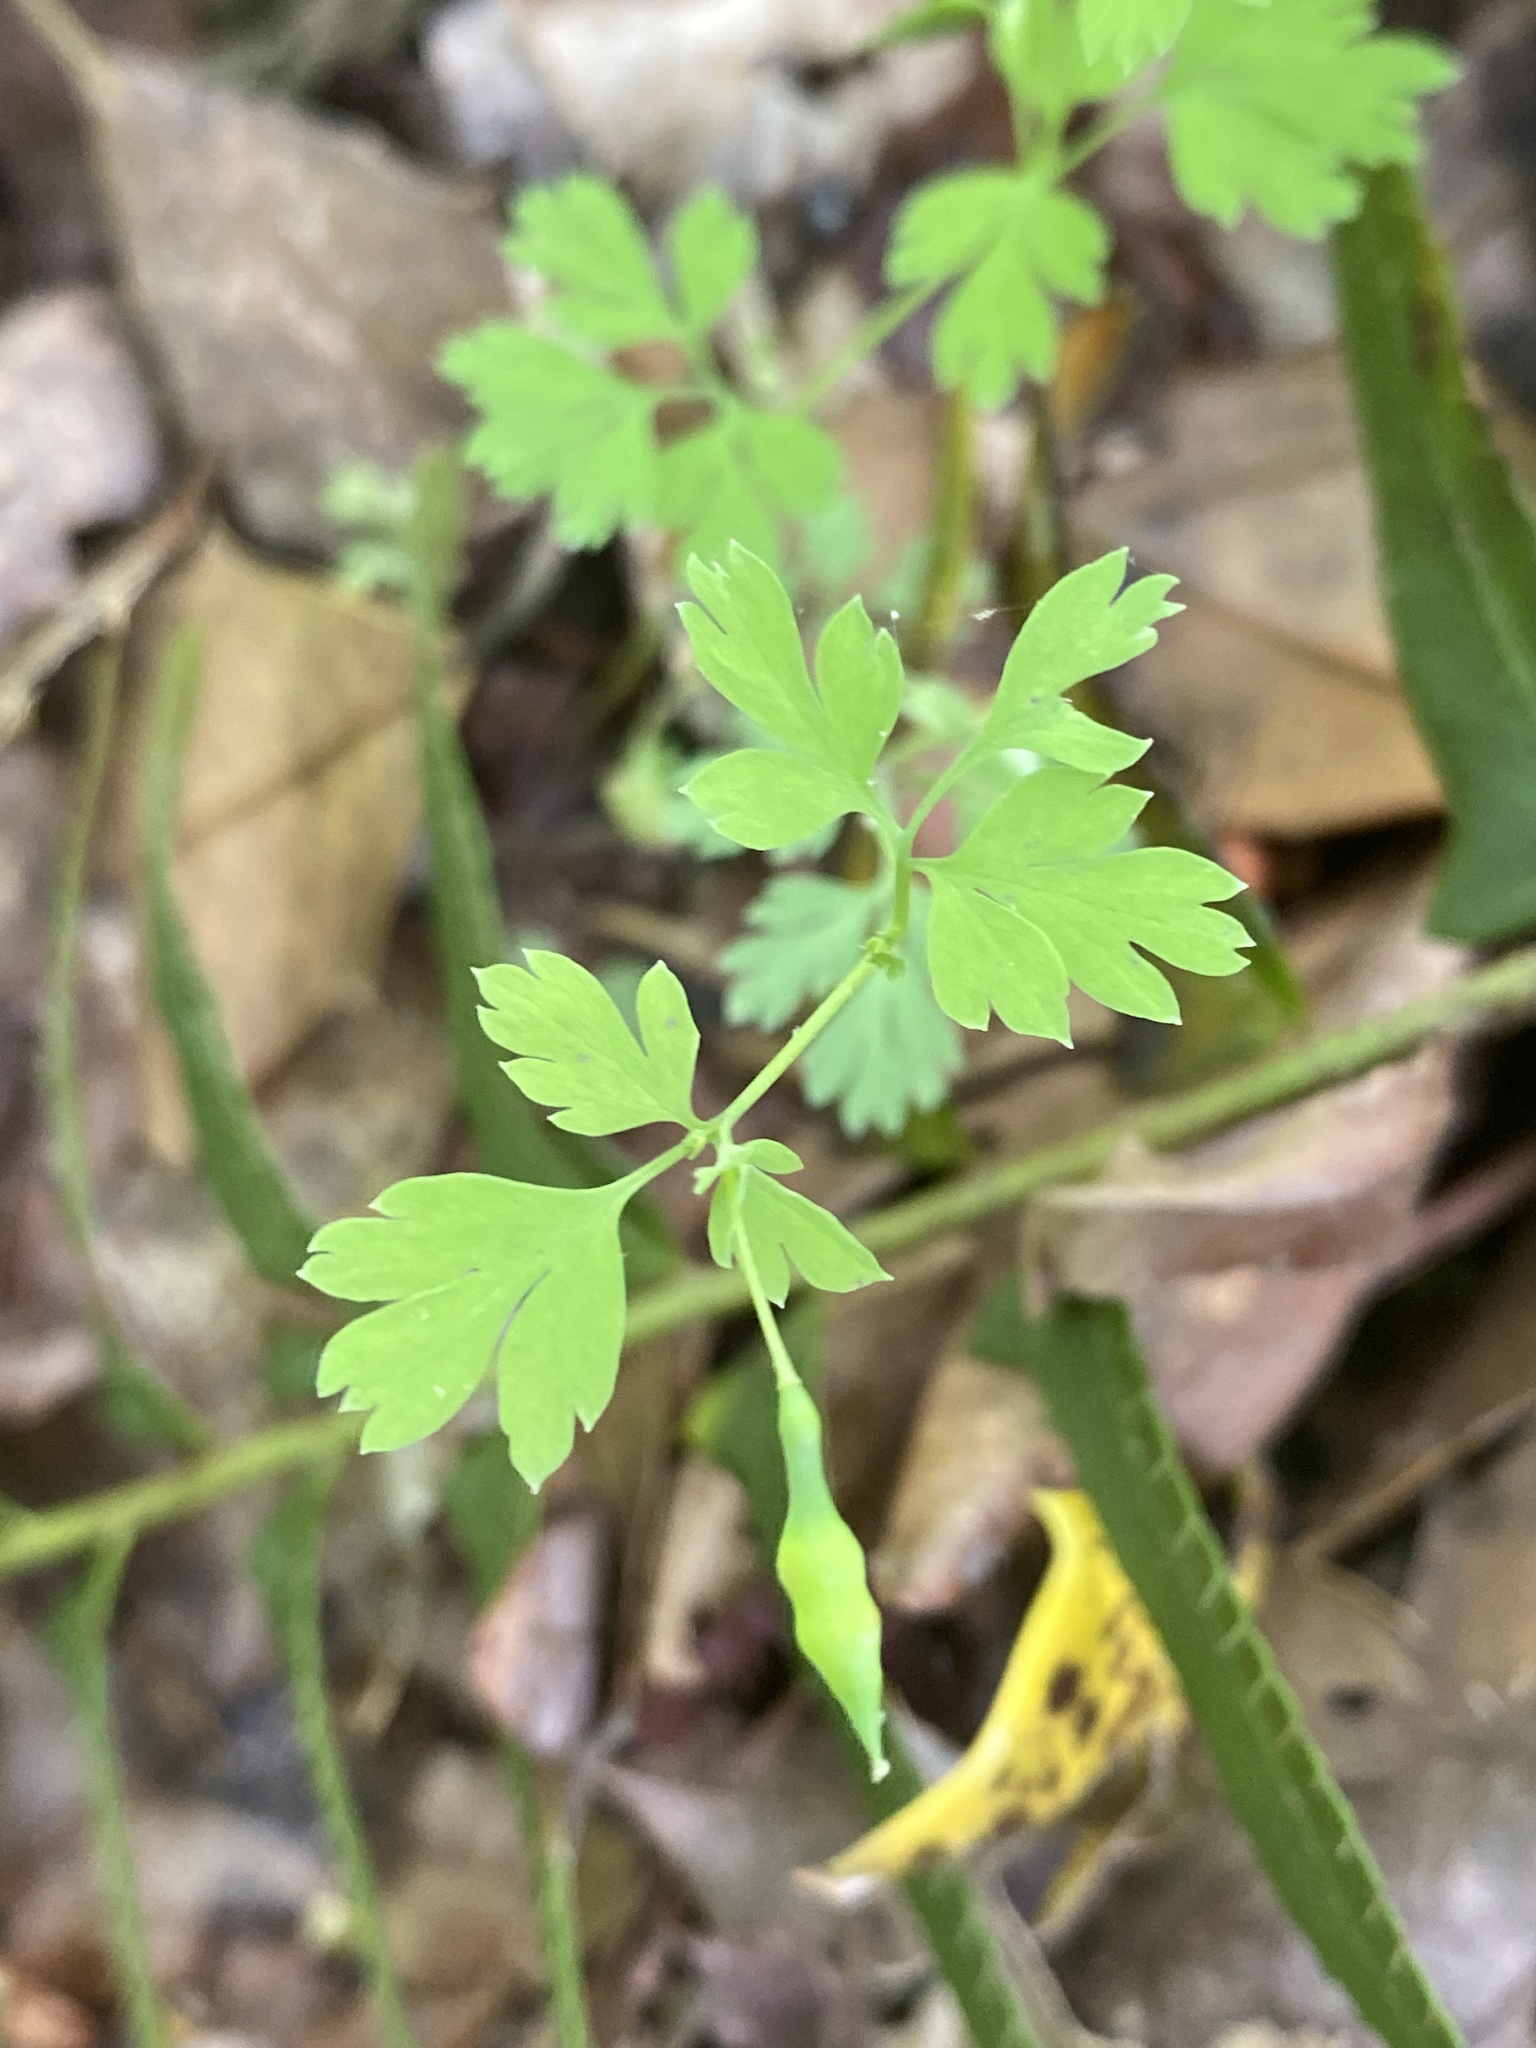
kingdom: Plantae
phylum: Tracheophyta
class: Magnoliopsida
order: Ranunculales
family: Papaveraceae
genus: Corydalis
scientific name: Corydalis flavula
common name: Yellow corydalis
